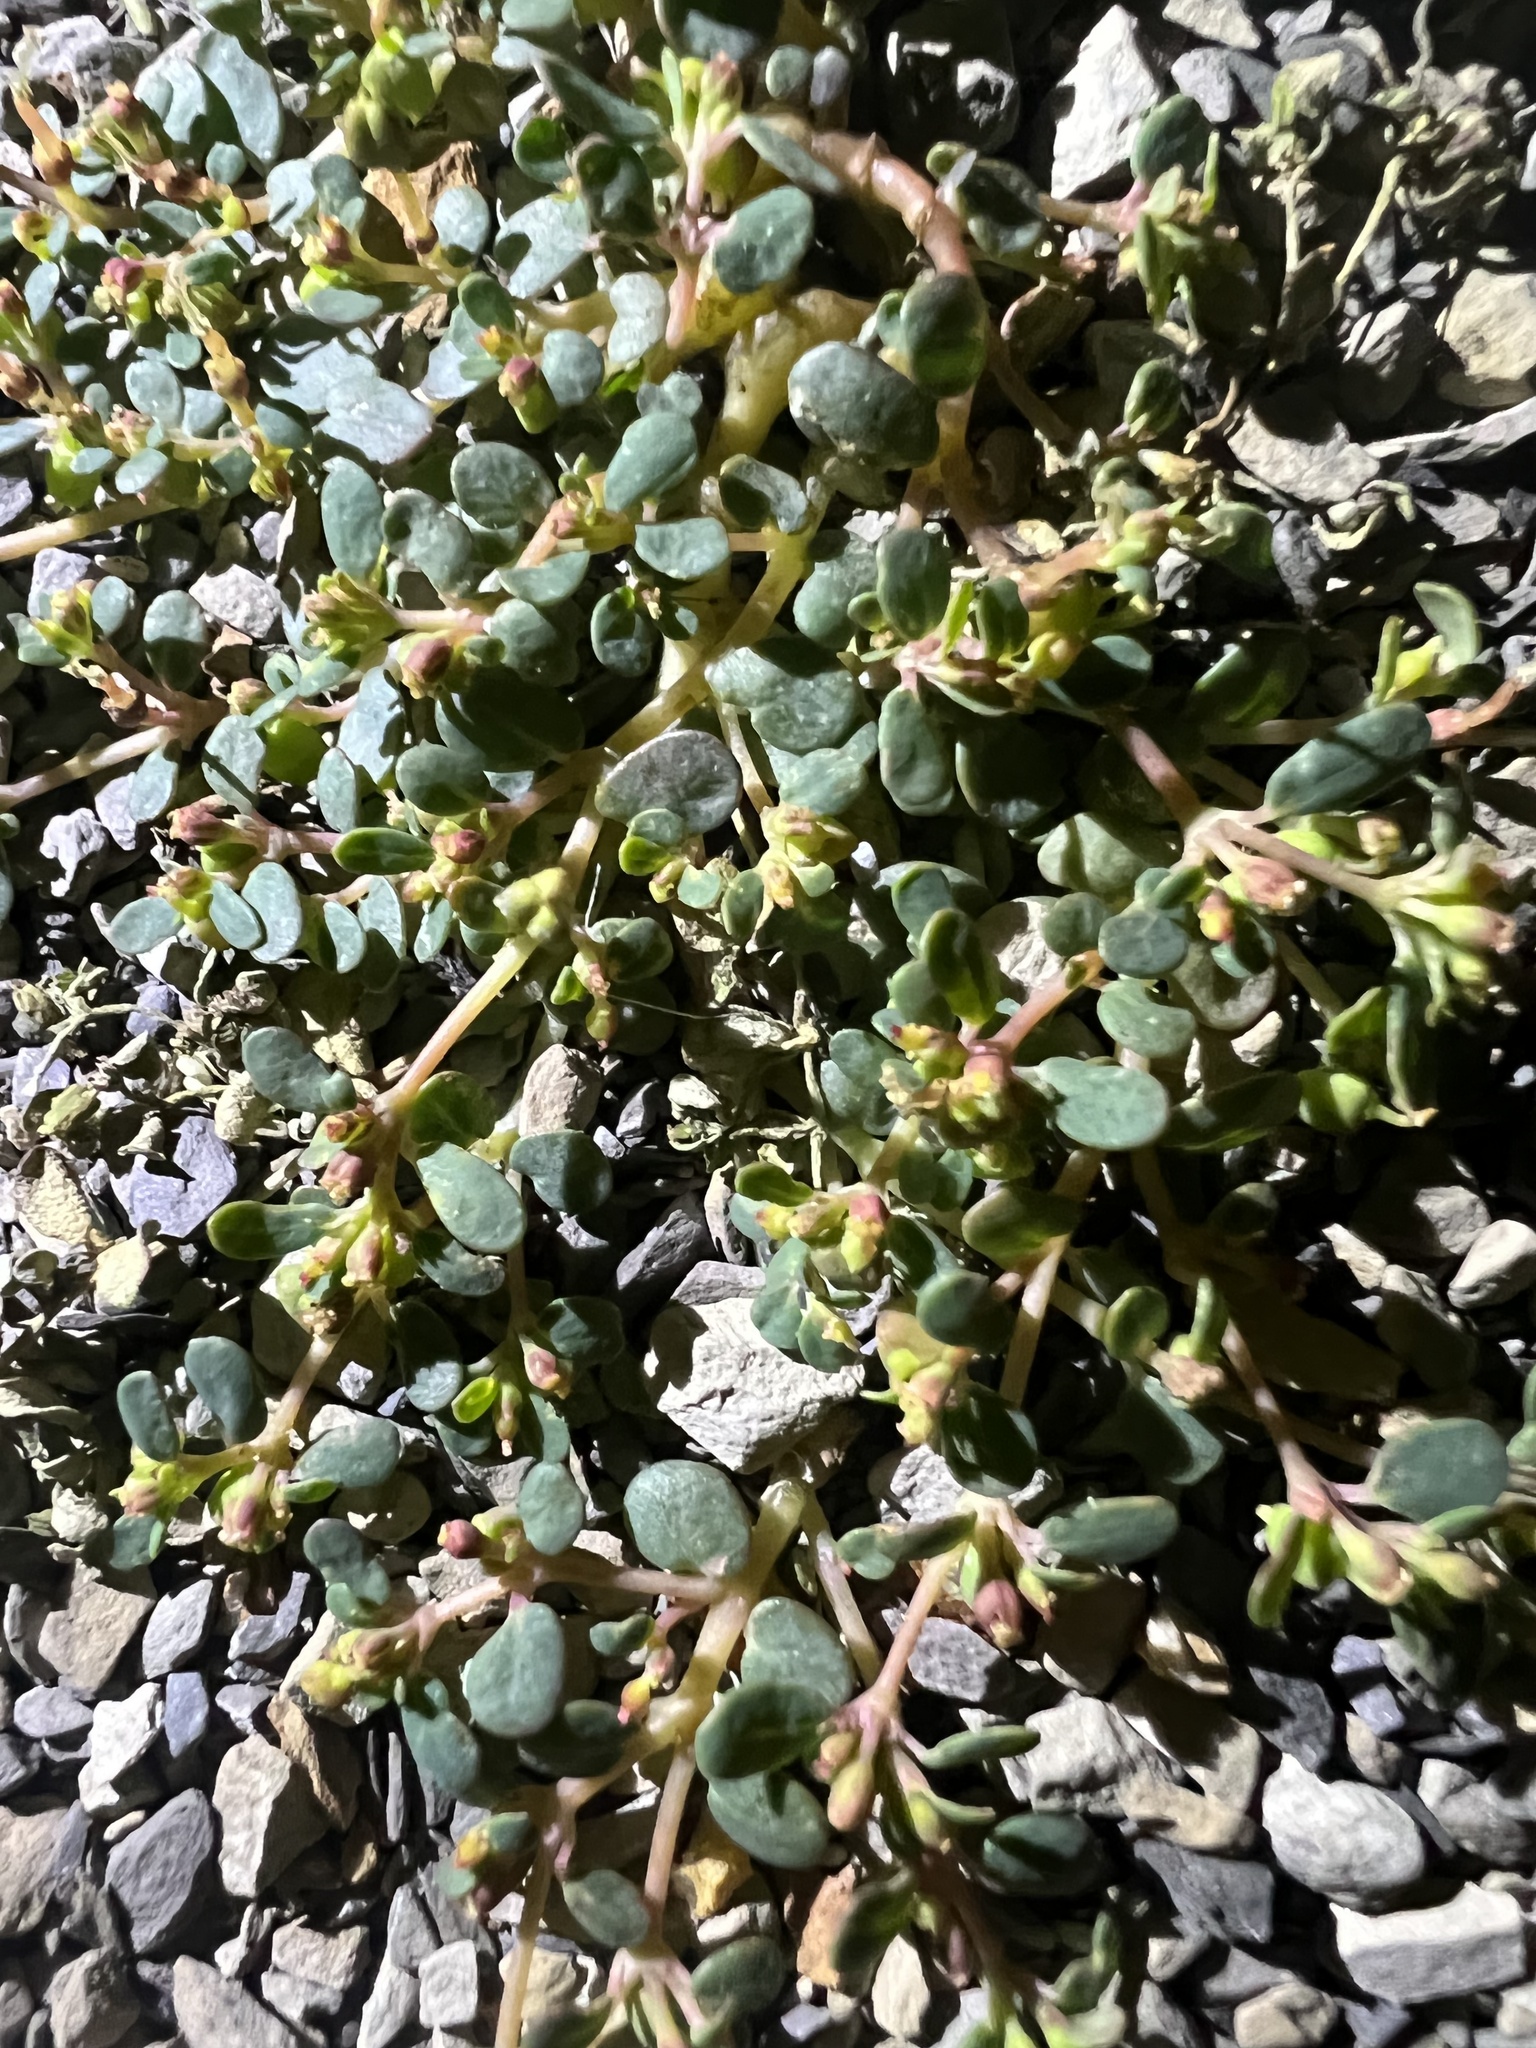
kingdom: Plantae
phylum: Tracheophyta
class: Magnoliopsida
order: Malpighiales
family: Euphorbiaceae
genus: Euphorbia
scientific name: Euphorbia cryptorubra
